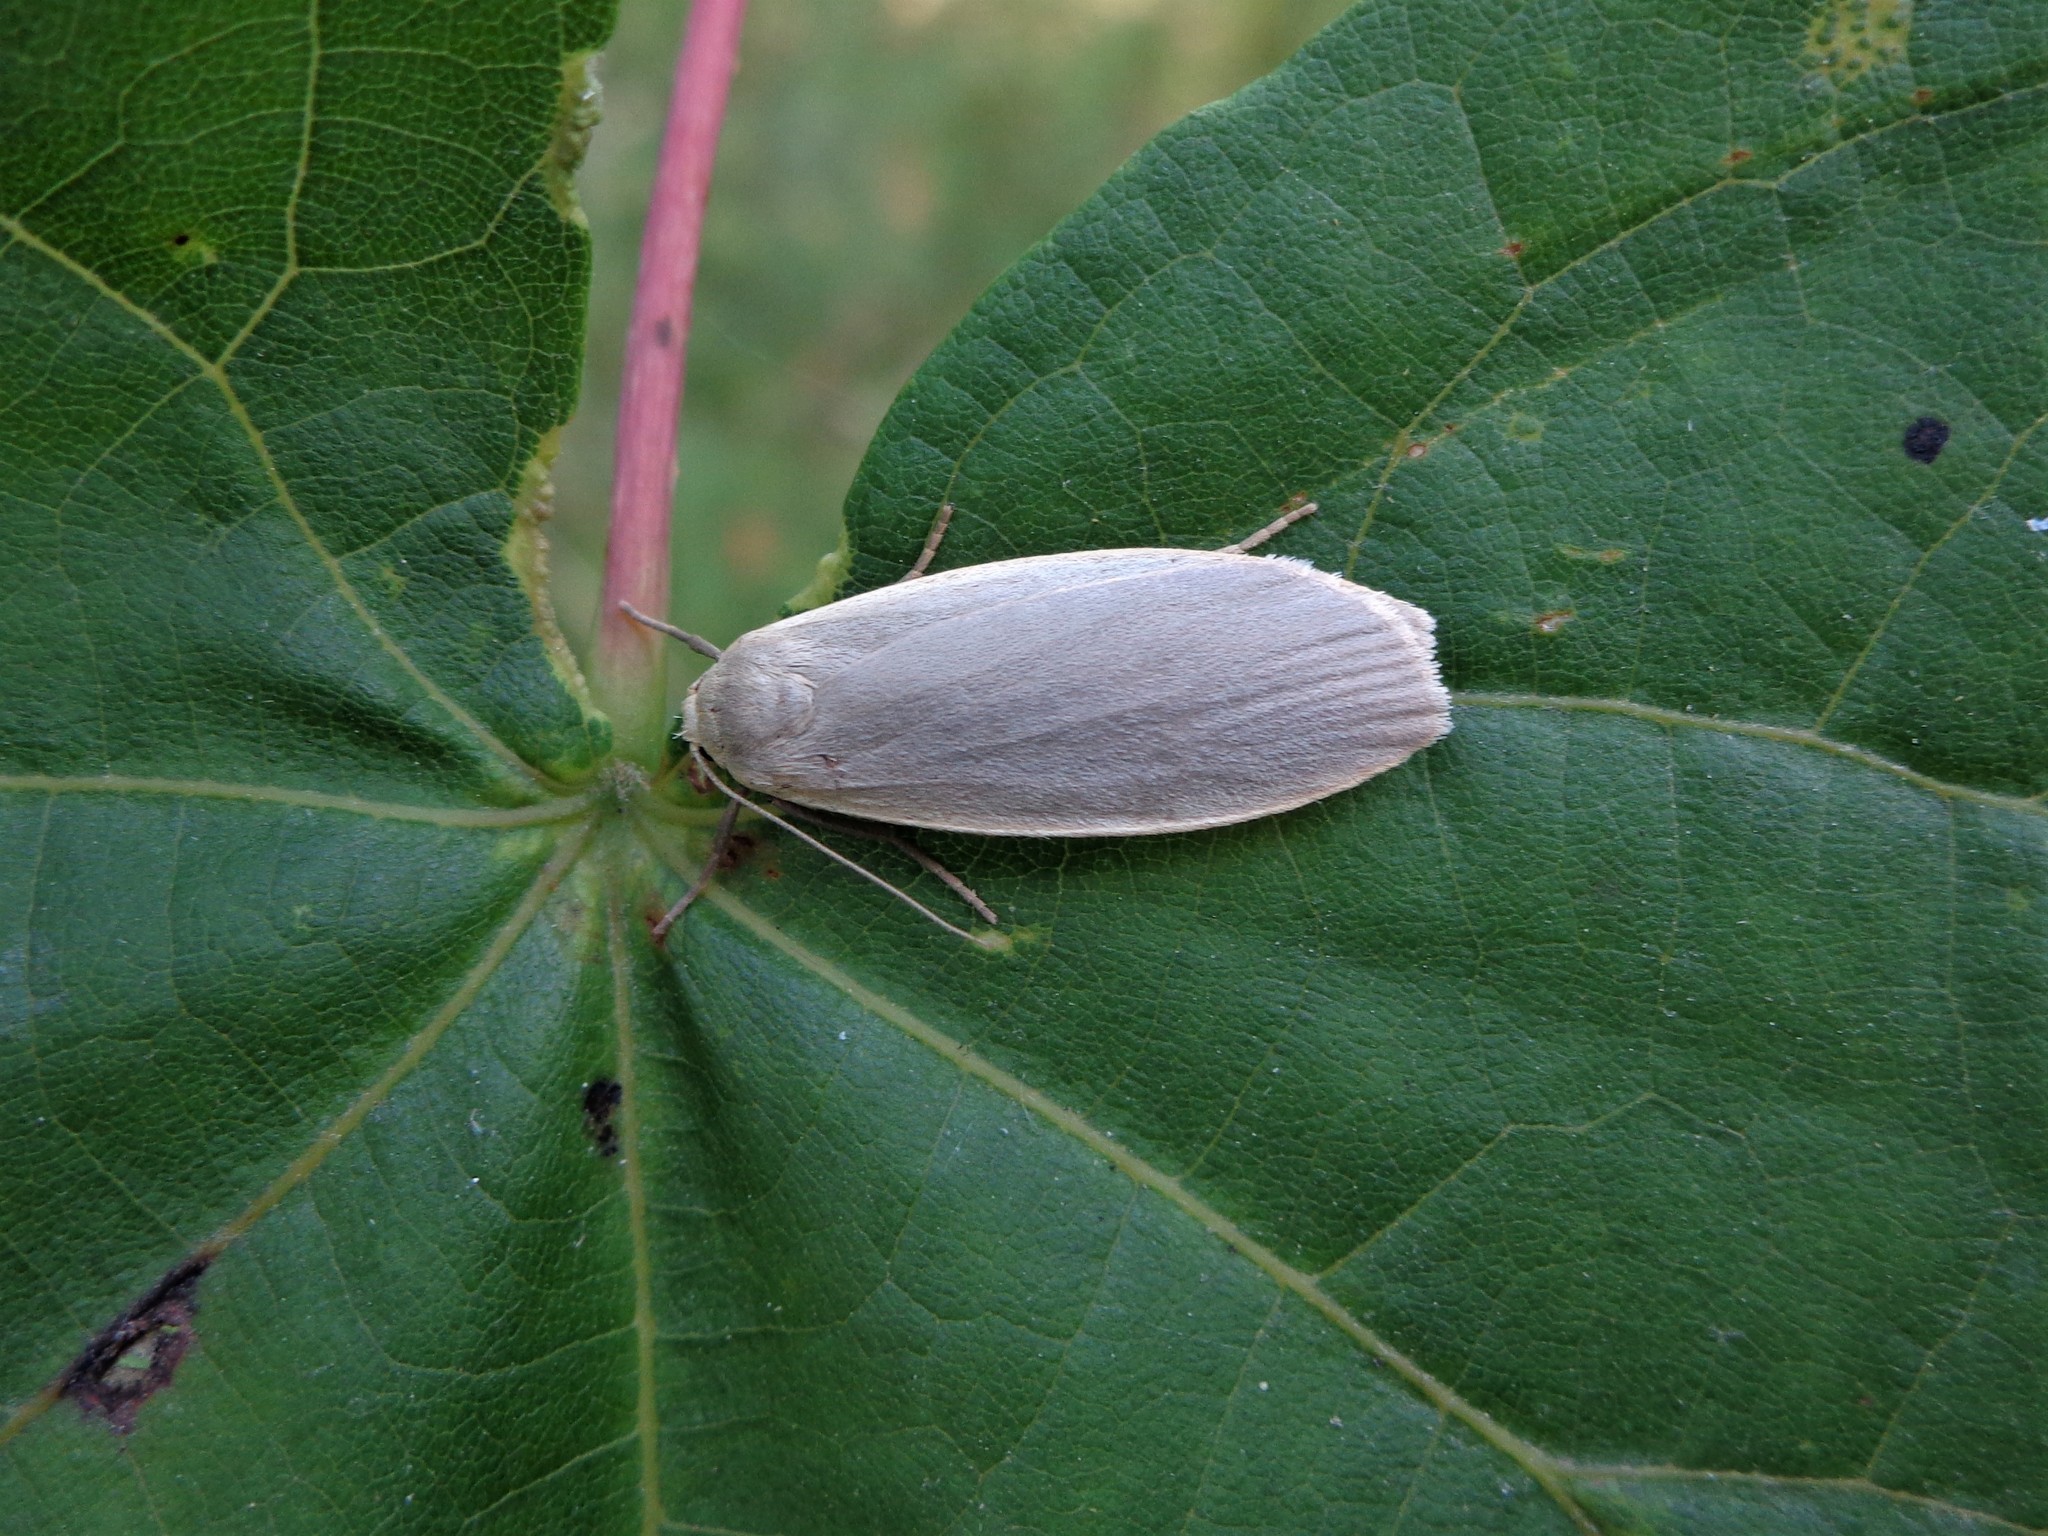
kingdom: Animalia
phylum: Arthropoda
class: Insecta
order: Lepidoptera
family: Erebidae
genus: Collita
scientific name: Collita griseola
